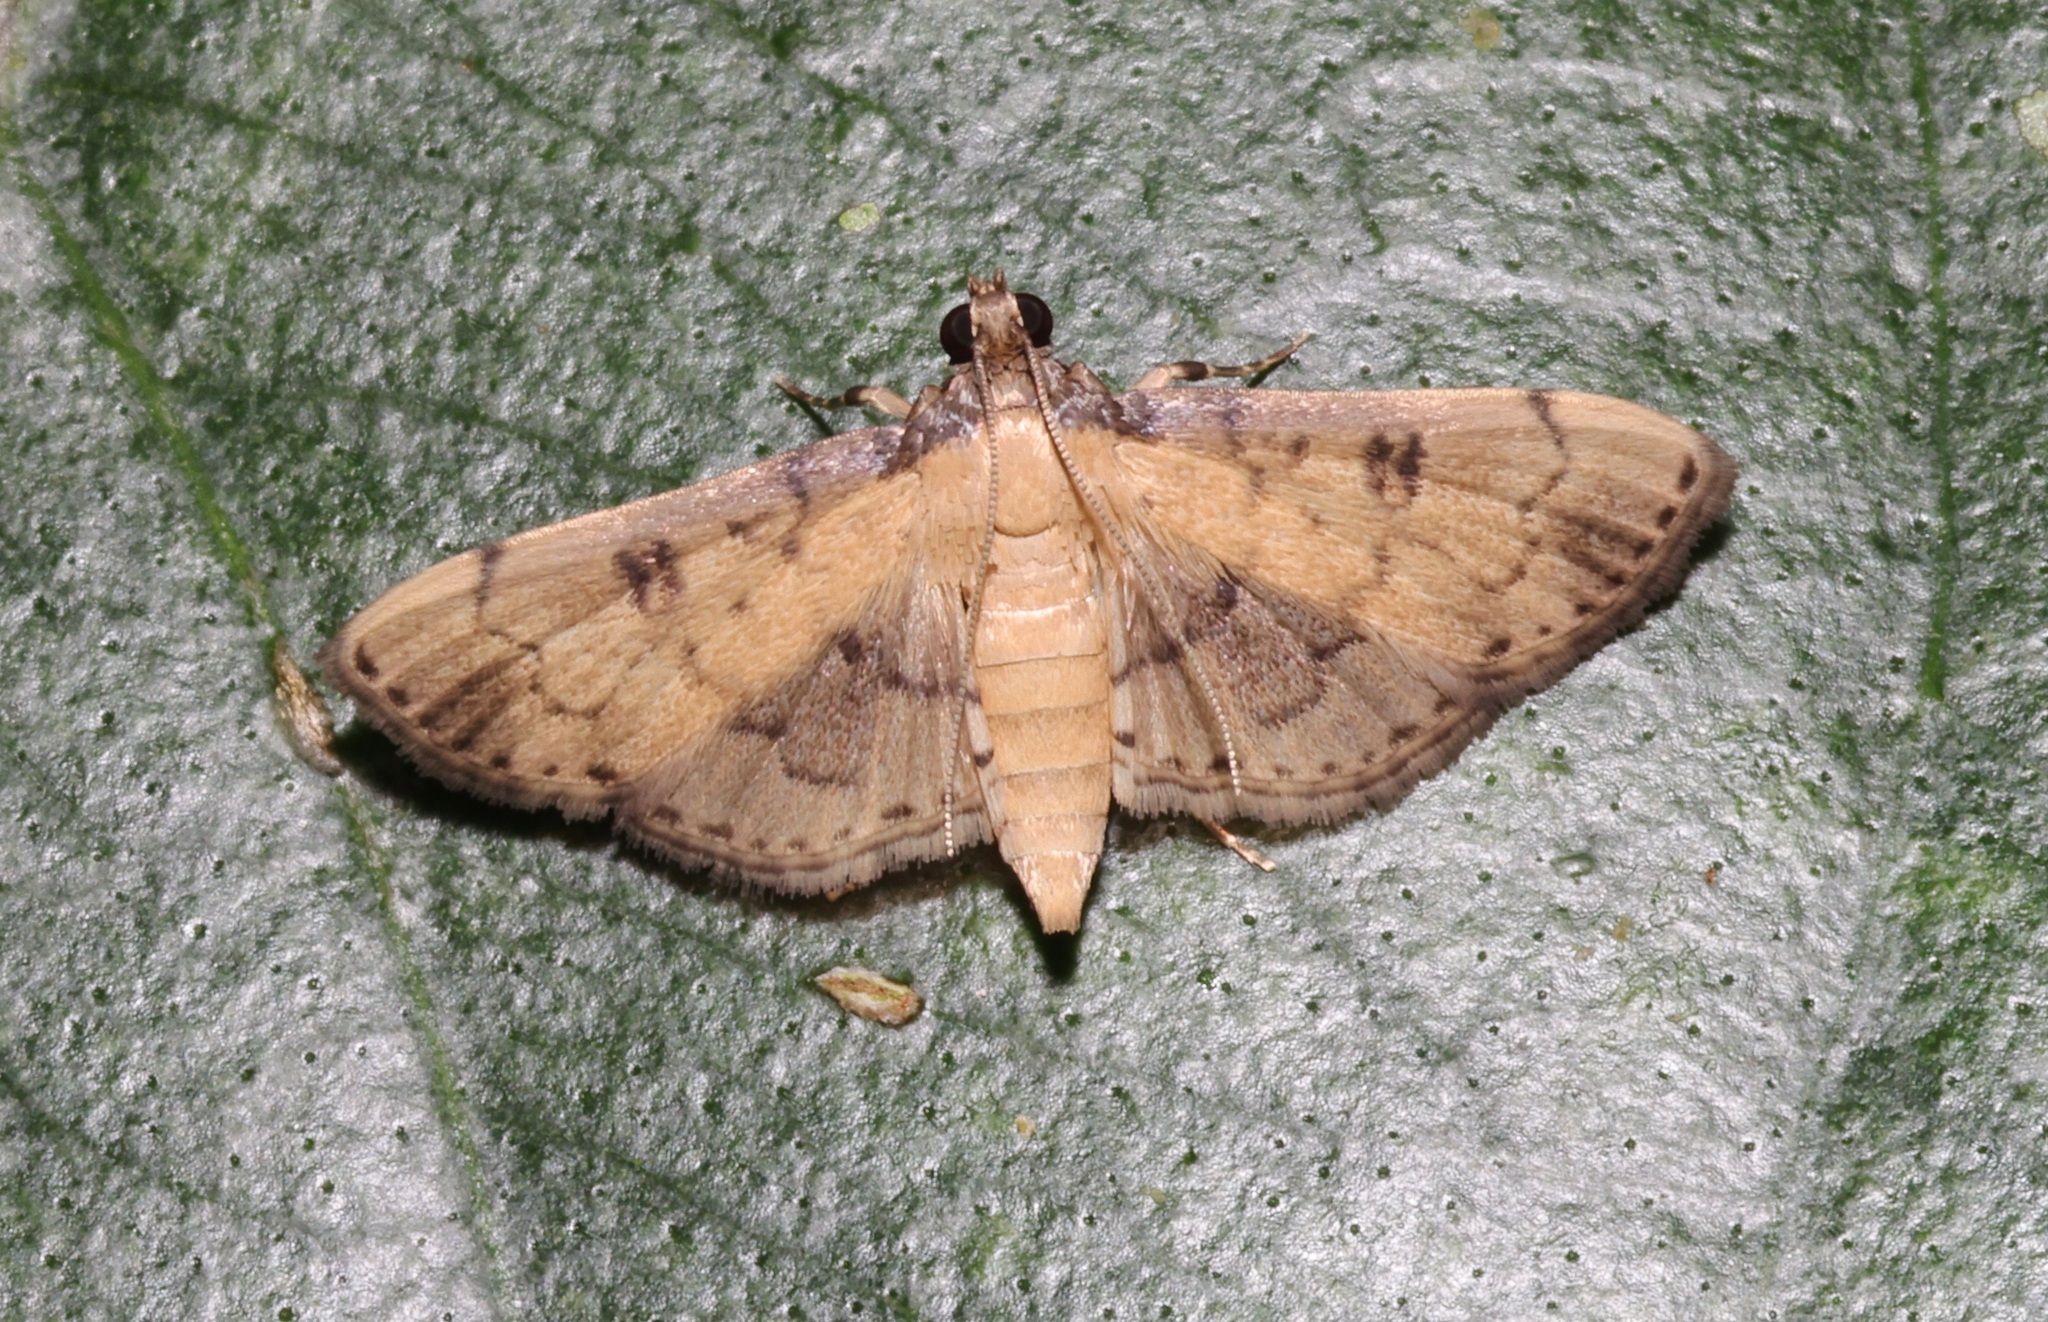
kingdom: Animalia
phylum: Arthropoda
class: Insecta
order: Lepidoptera
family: Crambidae
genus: Nacoleia
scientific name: Nacoleia charesalis
